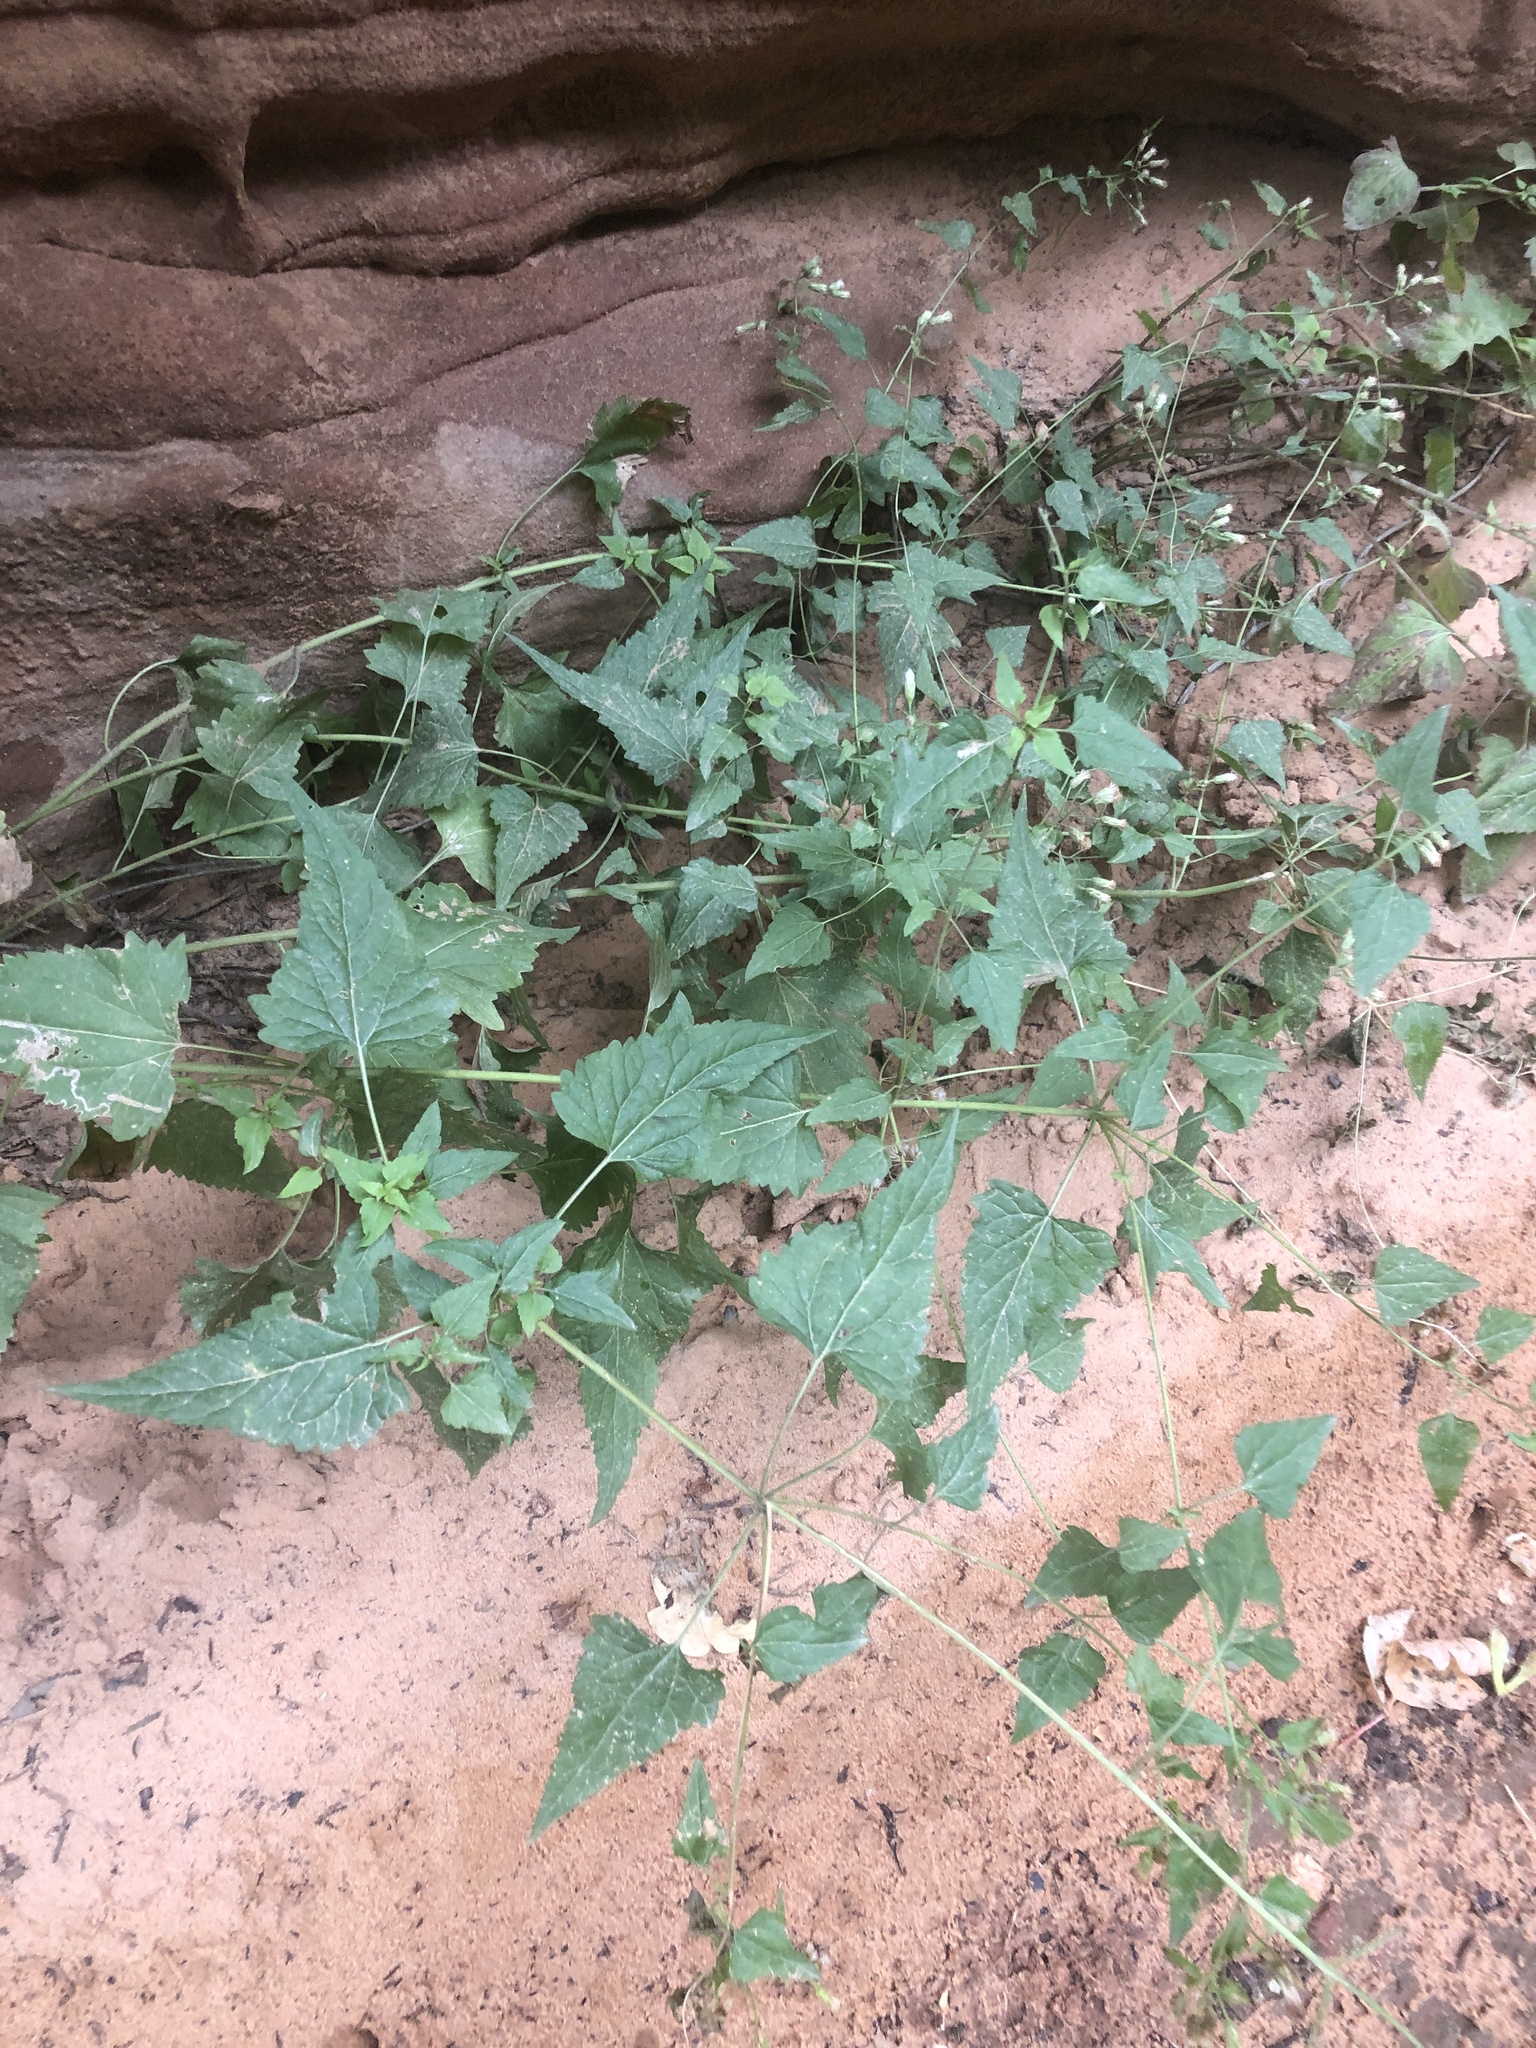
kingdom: Plantae
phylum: Tracheophyta
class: Magnoliopsida
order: Asterales
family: Asteraceae
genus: Brickellia
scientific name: Brickellia grandiflora
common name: Large-flowered brickellia
